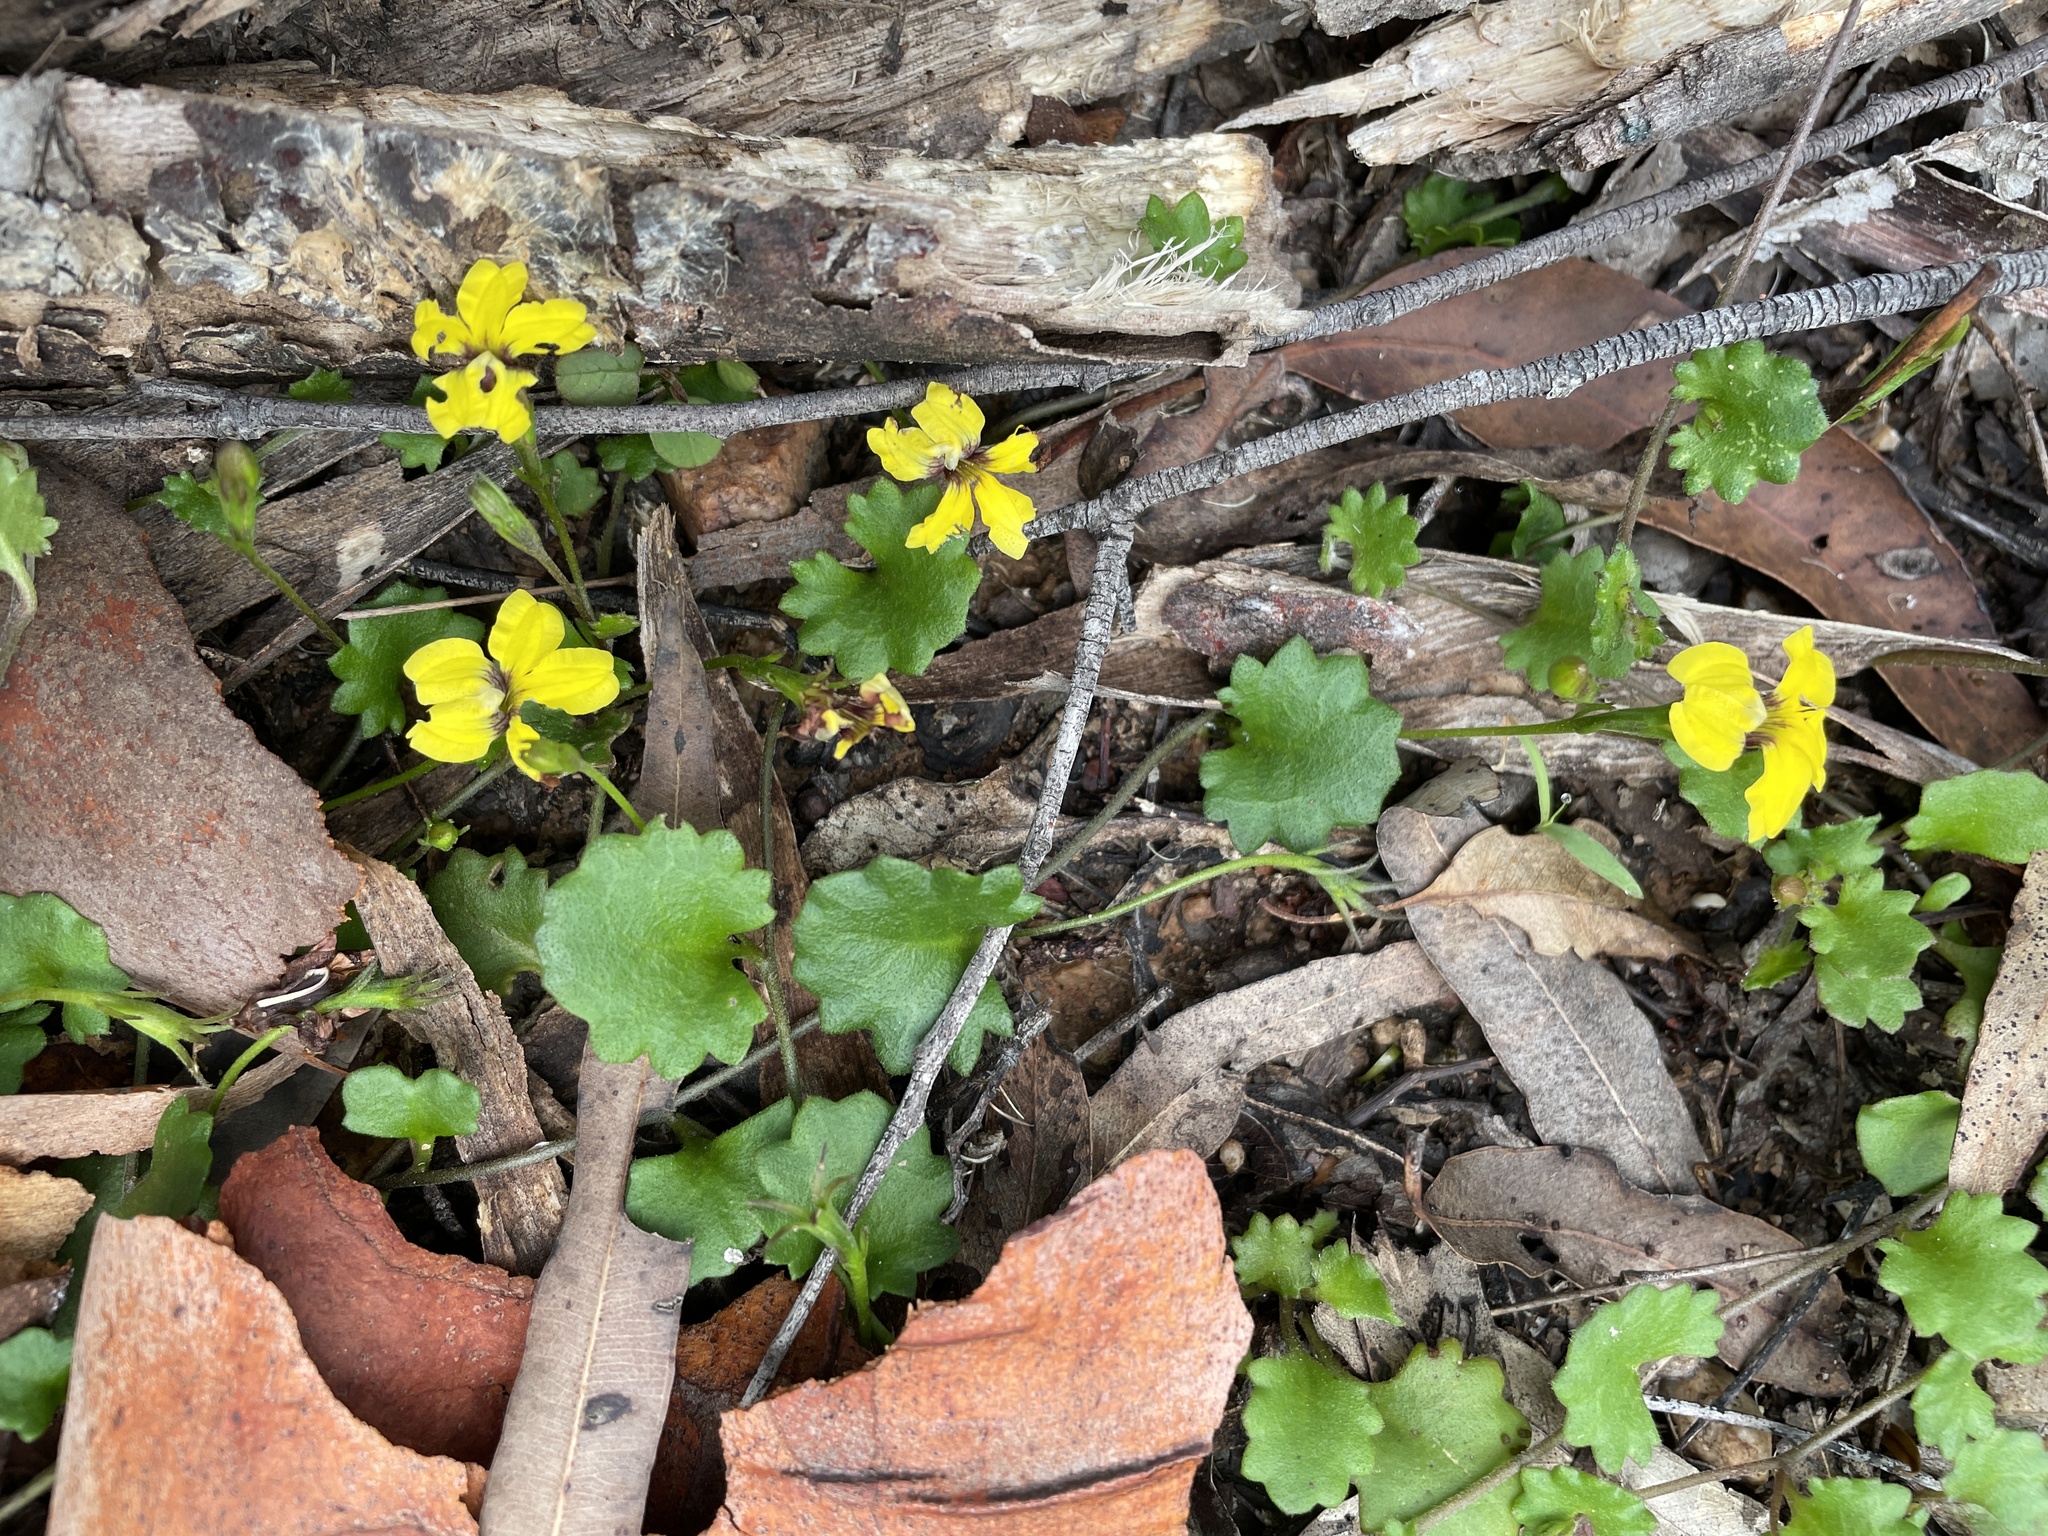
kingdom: Plantae
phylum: Tracheophyta
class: Magnoliopsida
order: Asterales
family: Goodeniaceae
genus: Goodenia
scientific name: Goodenia rotundifolia
